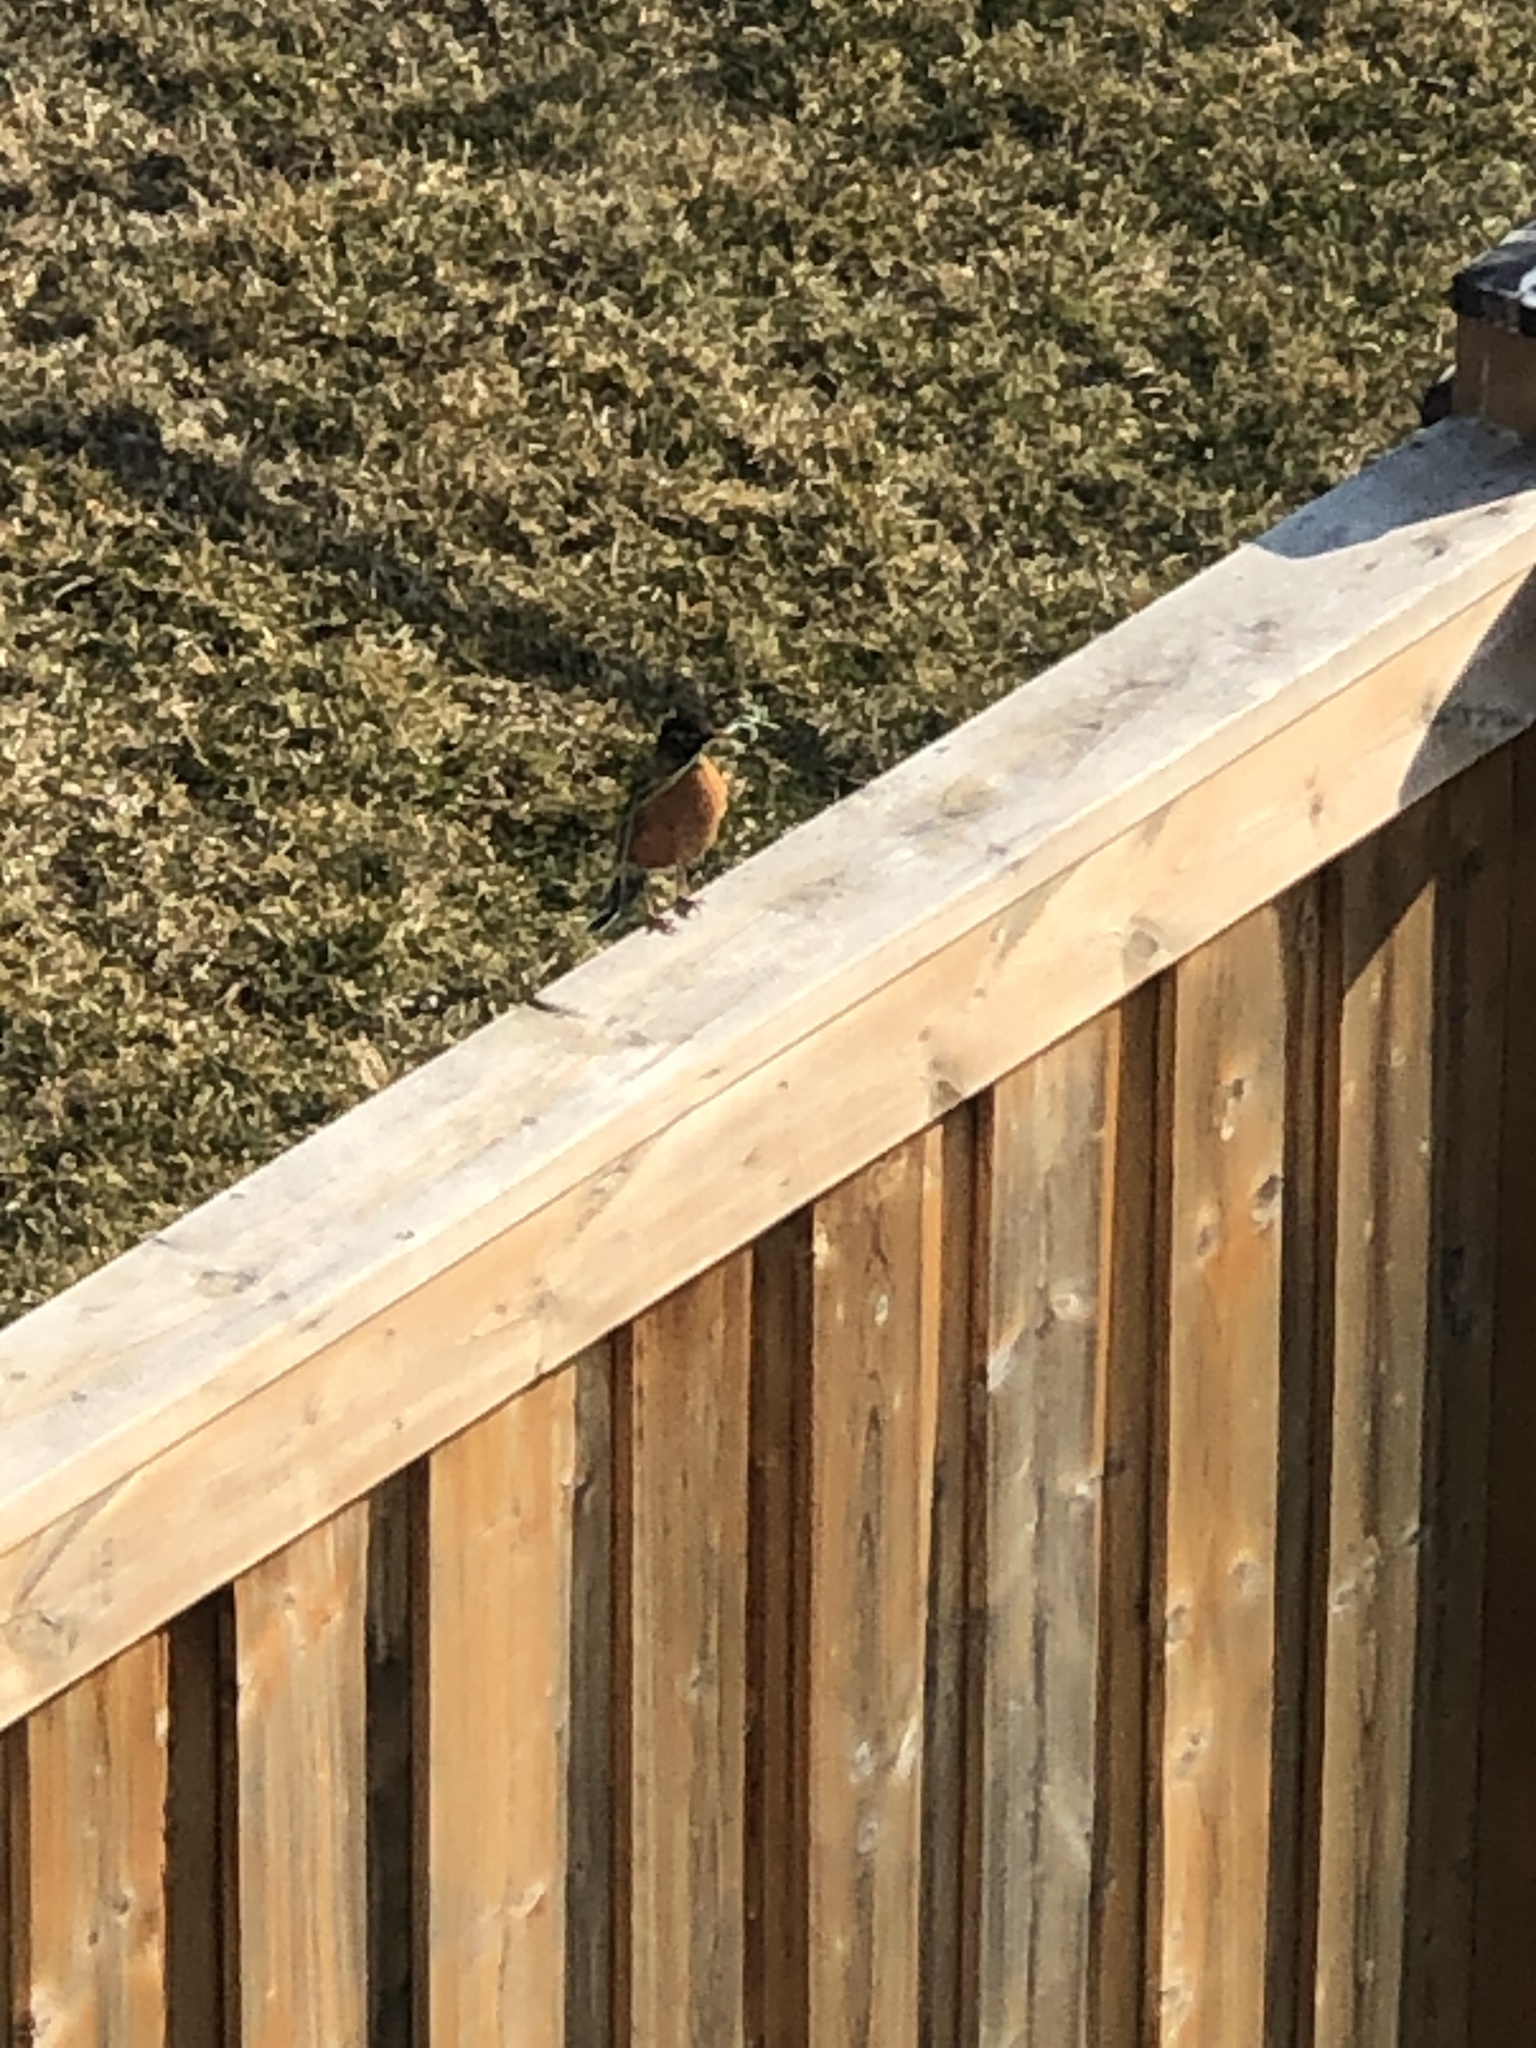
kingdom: Animalia
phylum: Chordata
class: Aves
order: Passeriformes
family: Turdidae
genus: Turdus
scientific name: Turdus migratorius
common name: American robin
